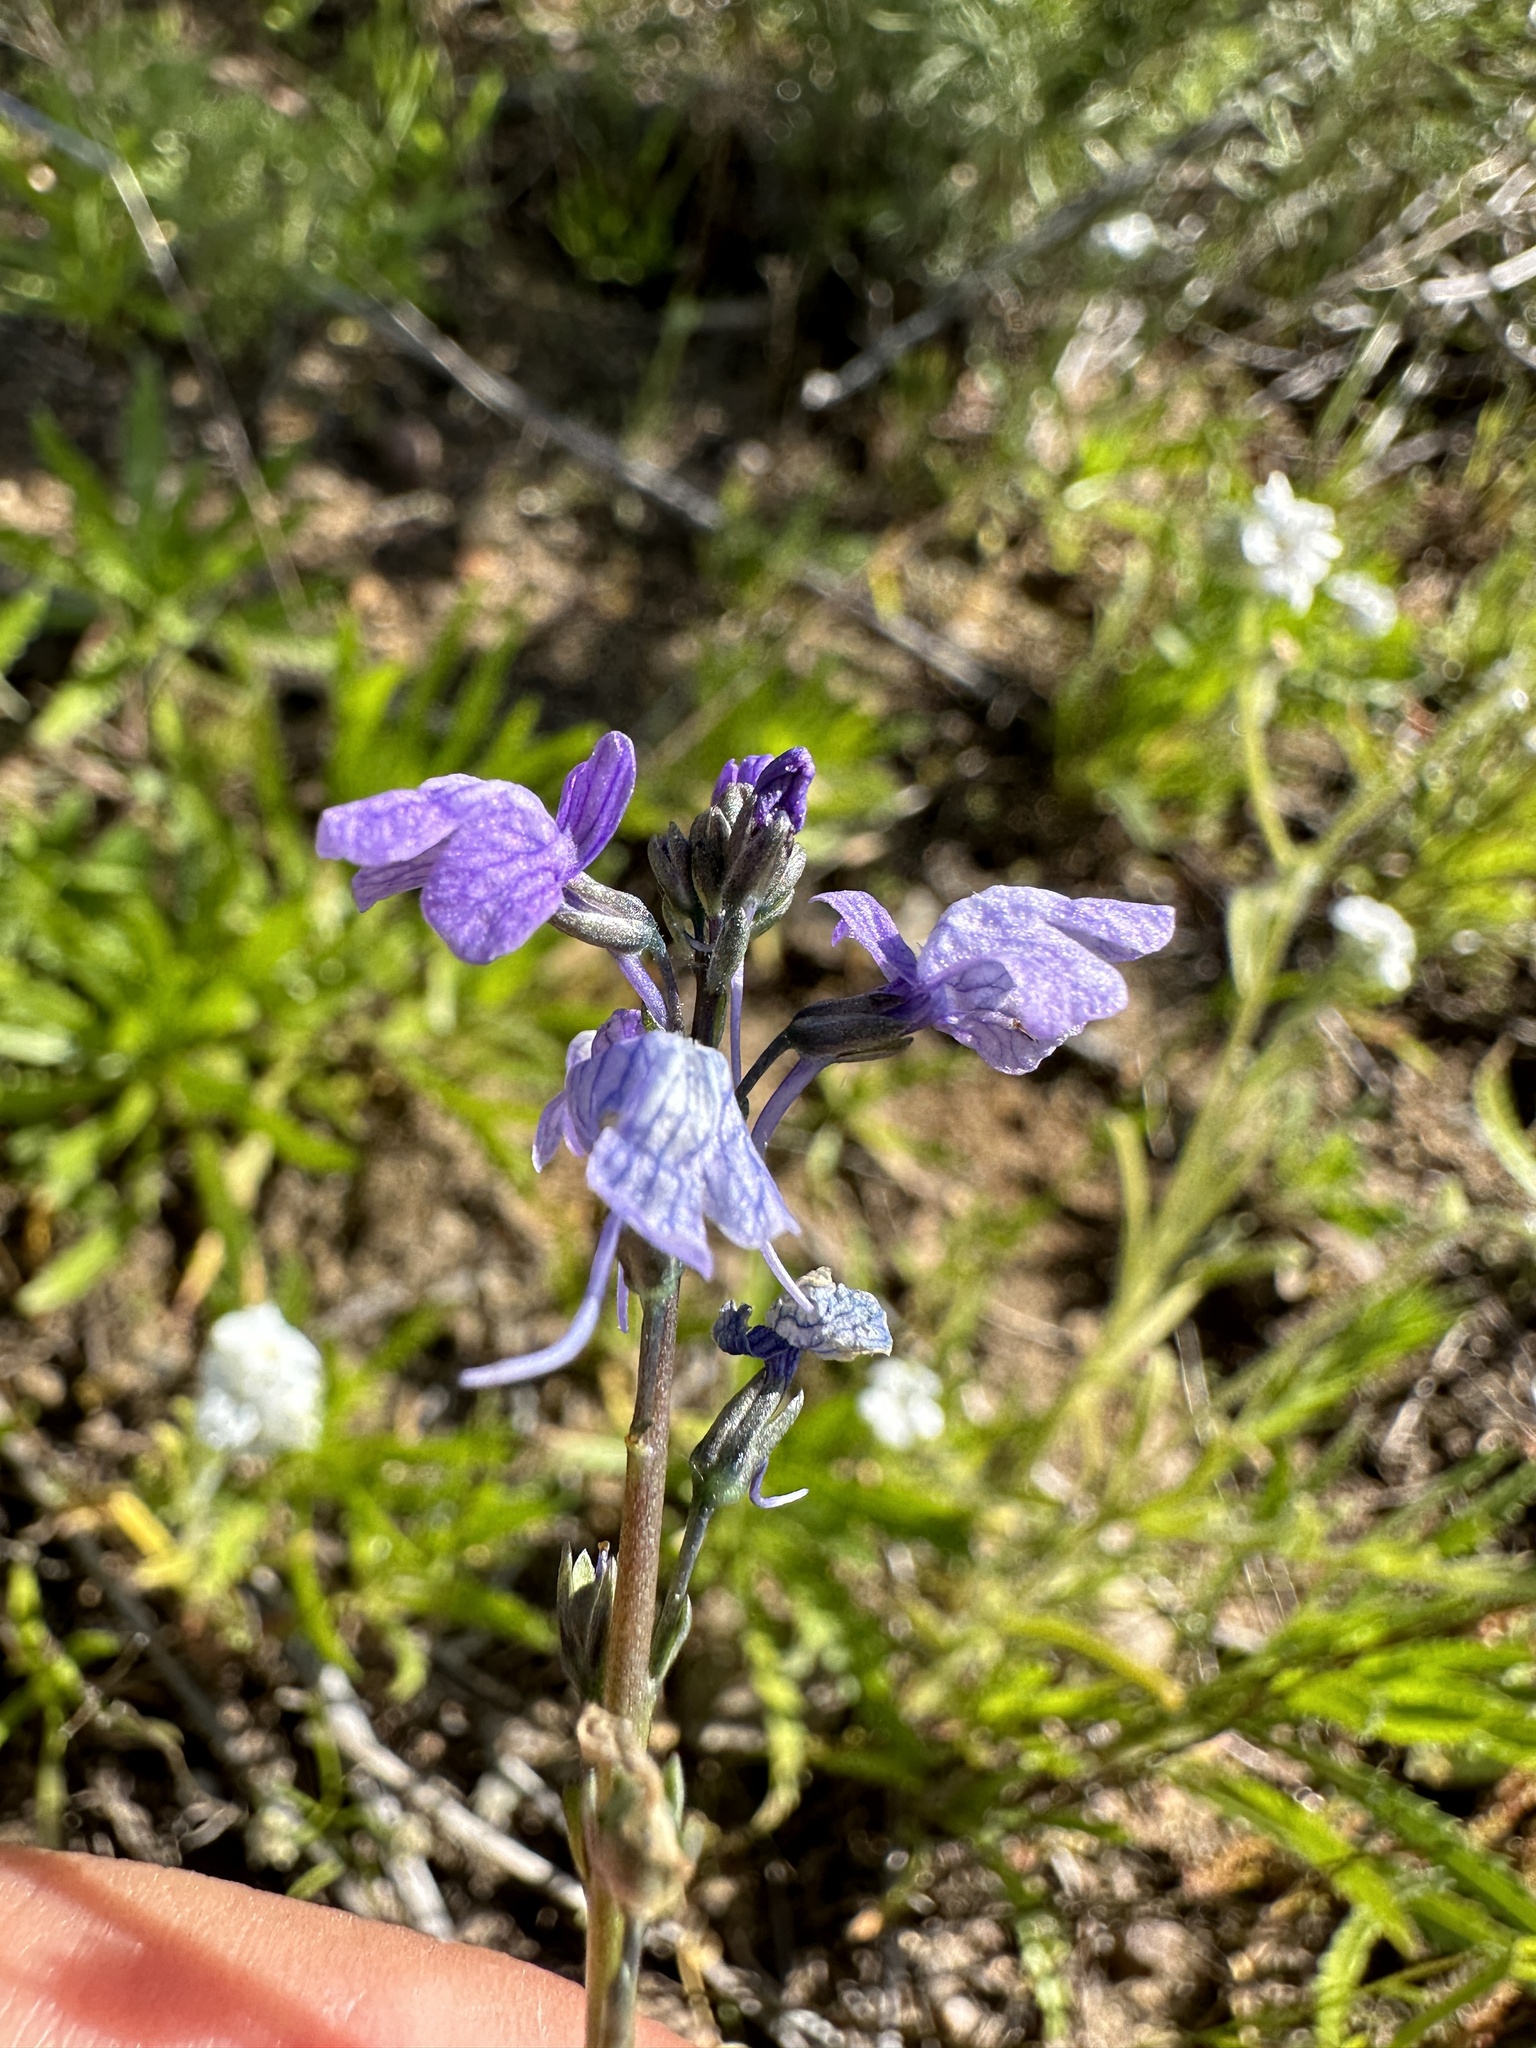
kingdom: Plantae
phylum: Tracheophyta
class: Magnoliopsida
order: Lamiales
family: Plantaginaceae
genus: Nuttallanthus
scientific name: Nuttallanthus texanus
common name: Texas toadflax
